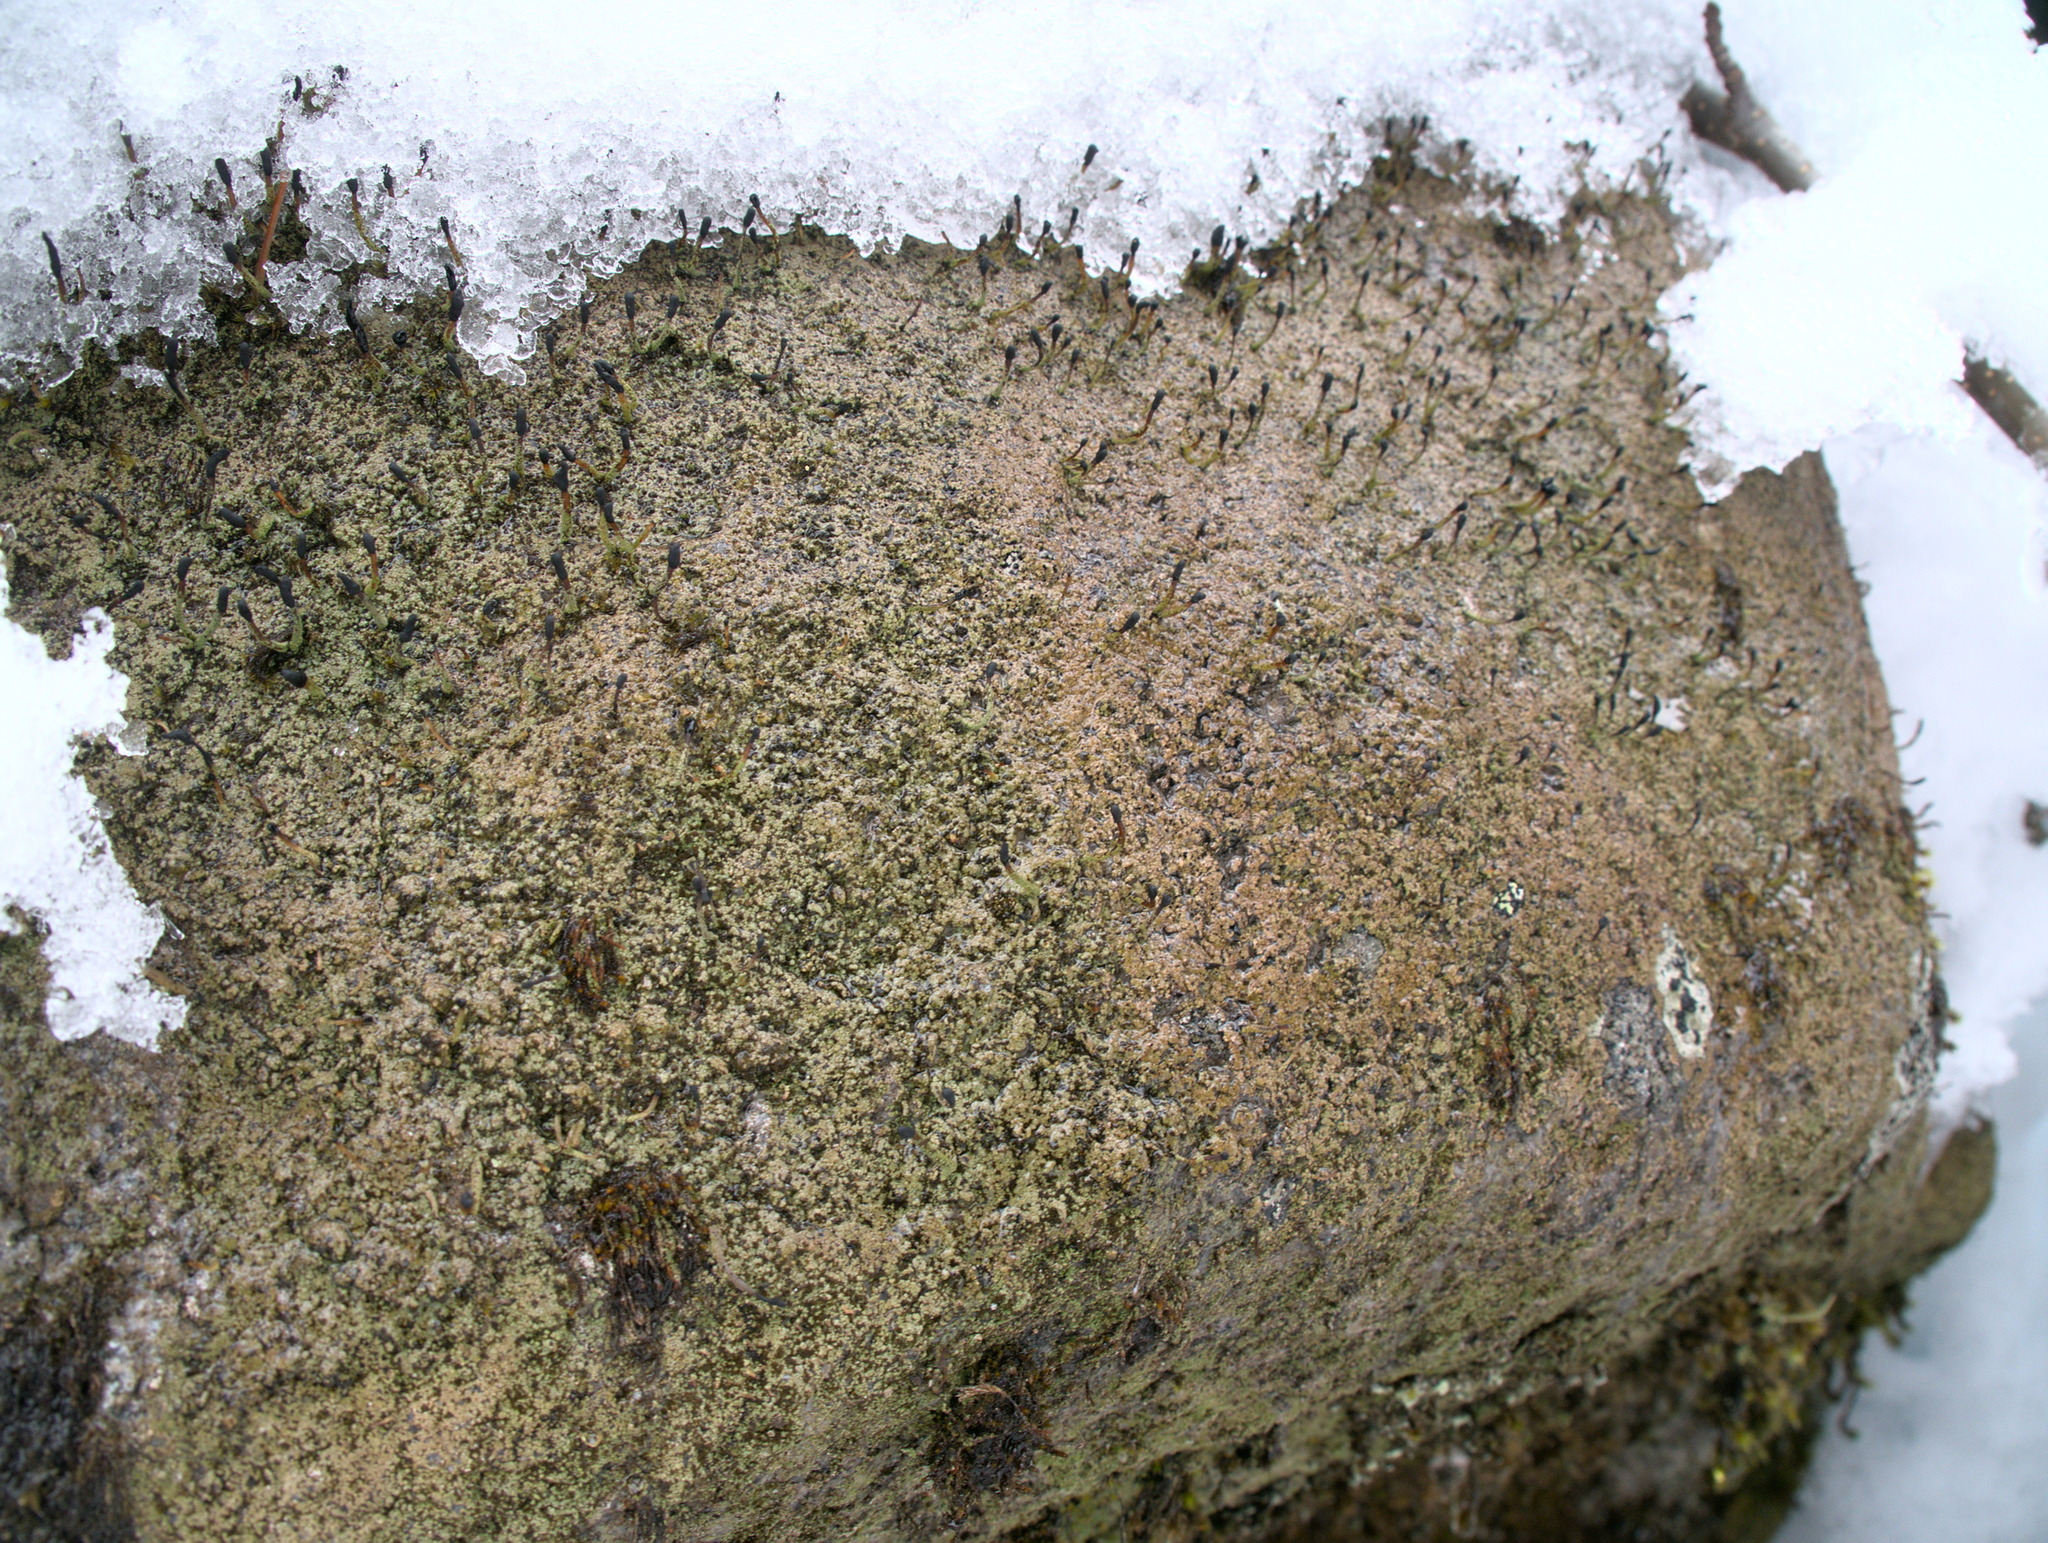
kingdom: Fungi
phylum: Ascomycota
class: Lecanoromycetes
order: Lecanorales
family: Cladoniaceae
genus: Pilophorus
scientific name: Pilophorus clavatus
